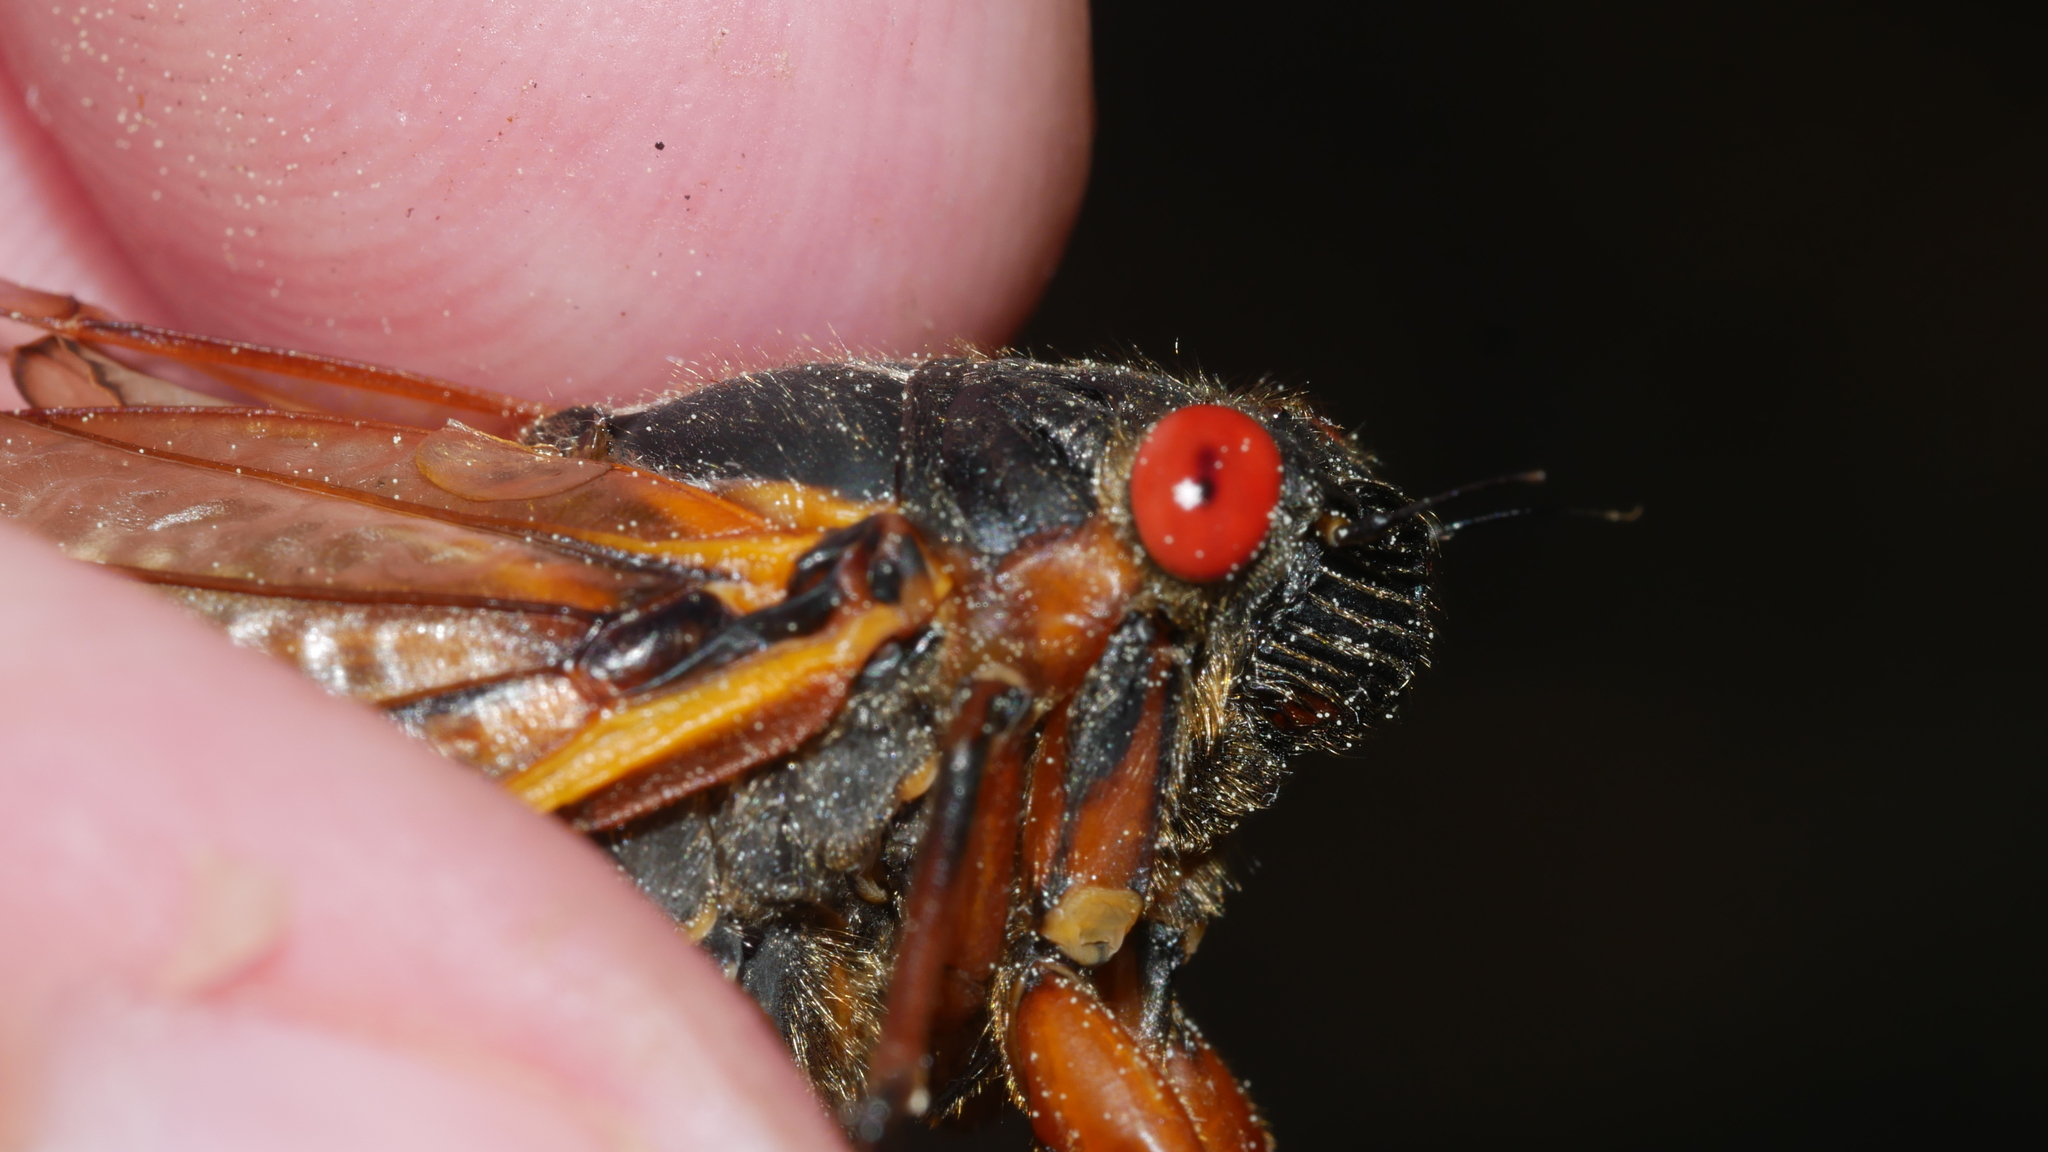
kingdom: Animalia
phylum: Arthropoda
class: Insecta
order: Hemiptera
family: Cicadidae
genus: Magicicada
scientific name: Magicicada septendecim
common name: Periodical cicada
